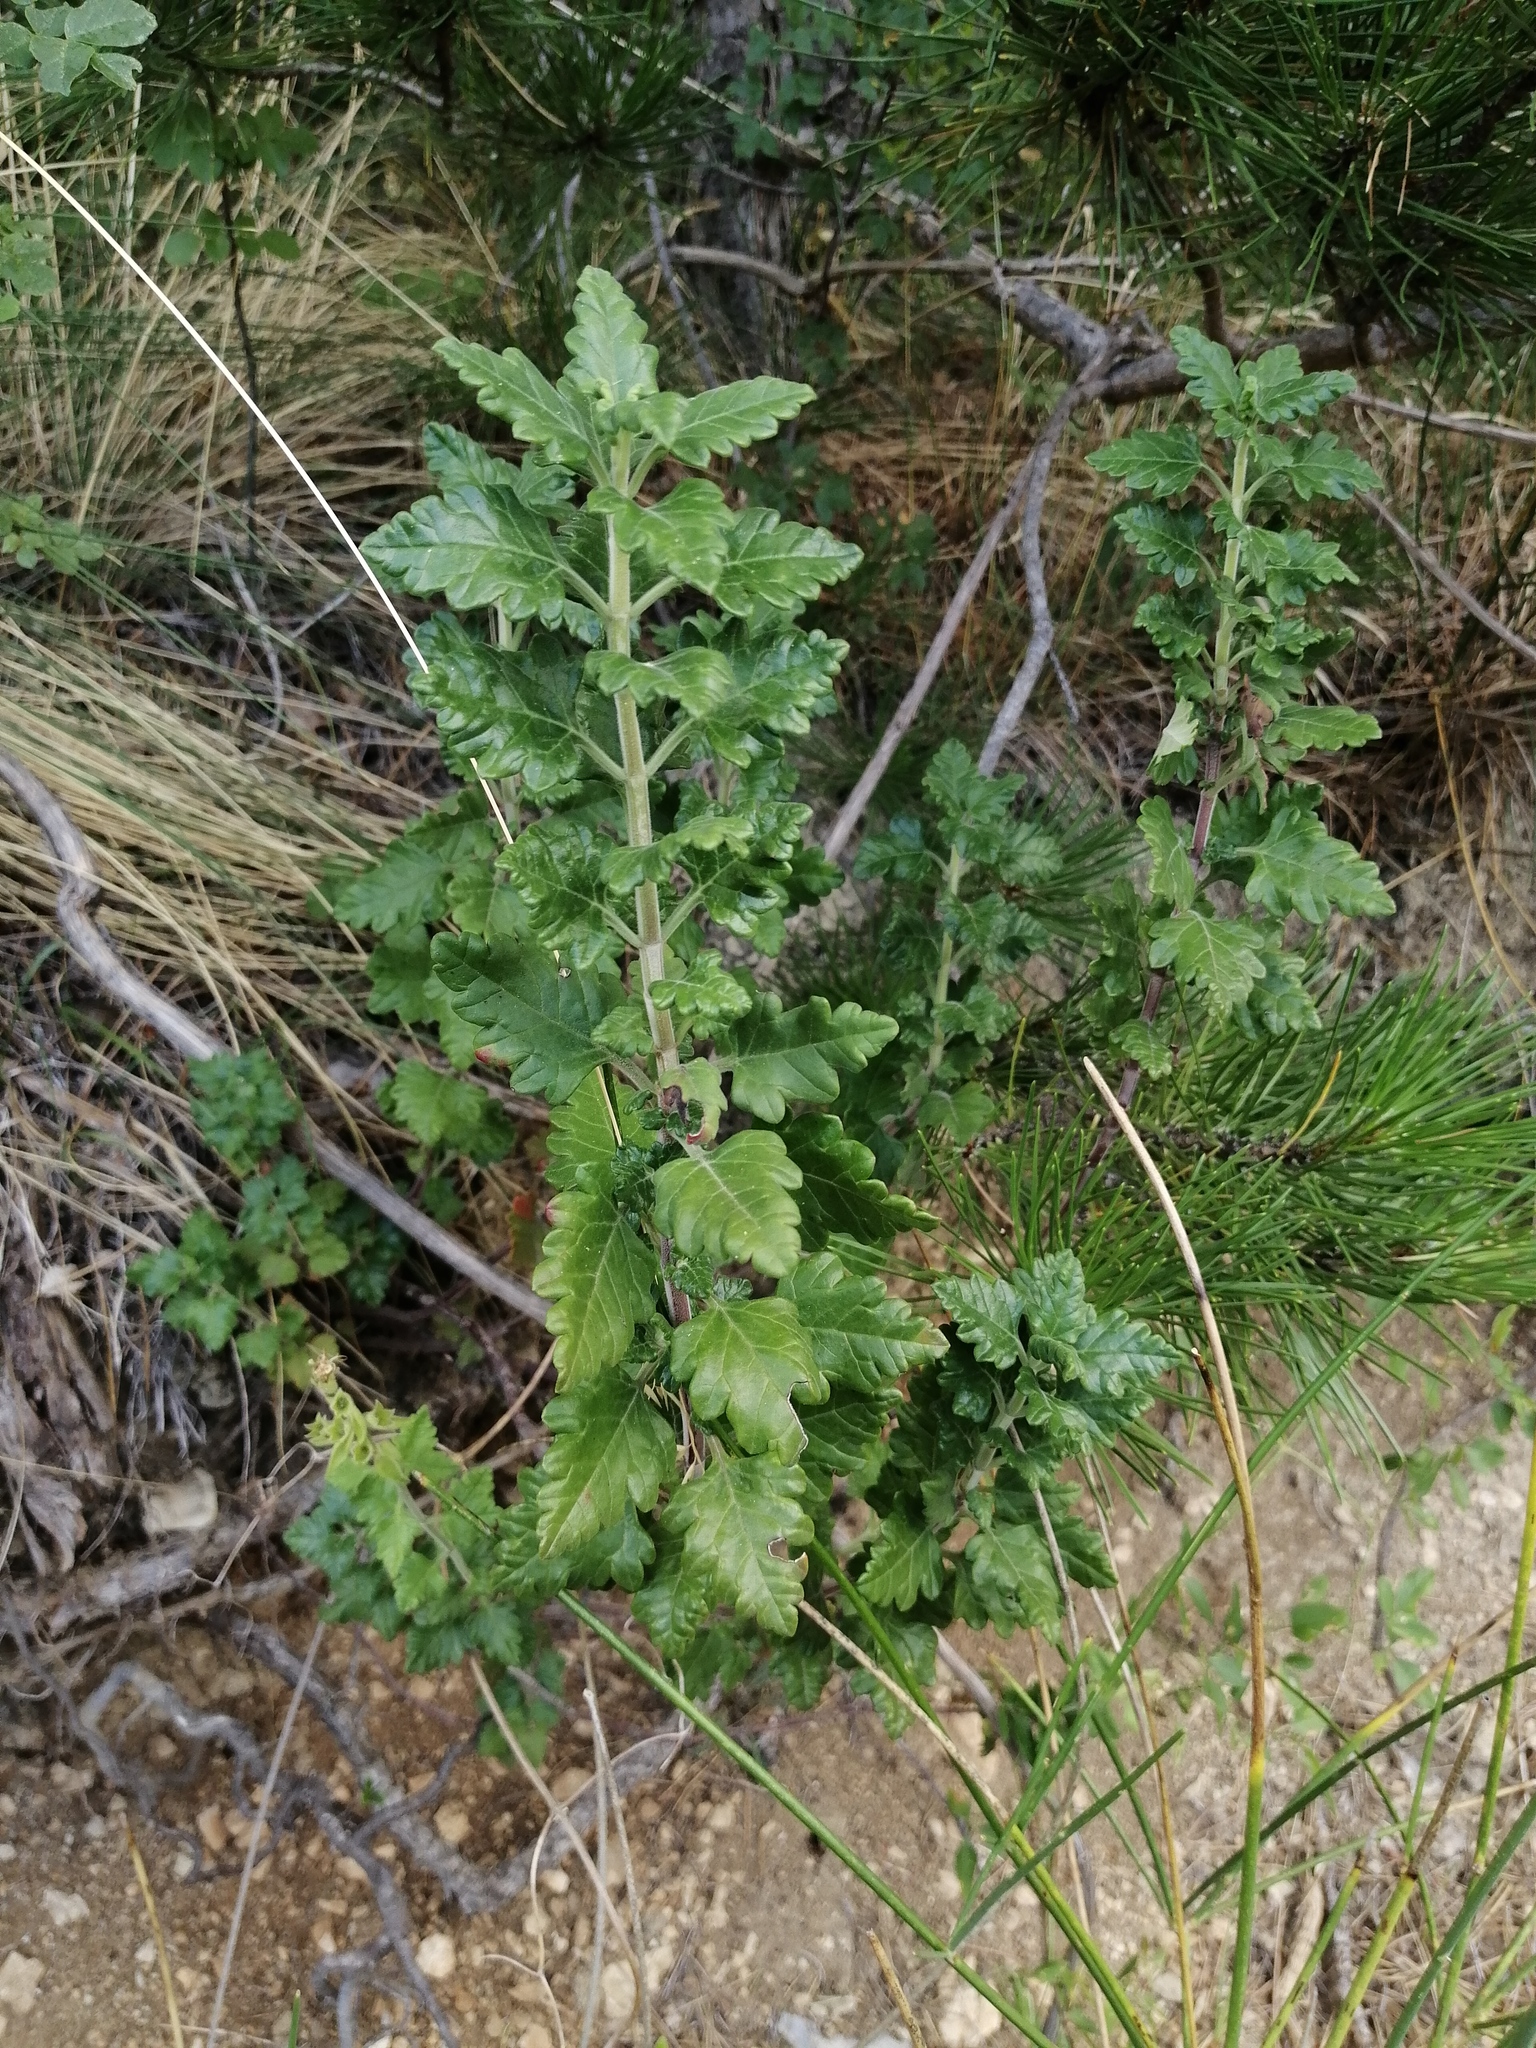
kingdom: Plantae
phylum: Tracheophyta
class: Magnoliopsida
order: Lamiales
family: Lamiaceae
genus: Teucrium
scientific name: Teucrium flavum
